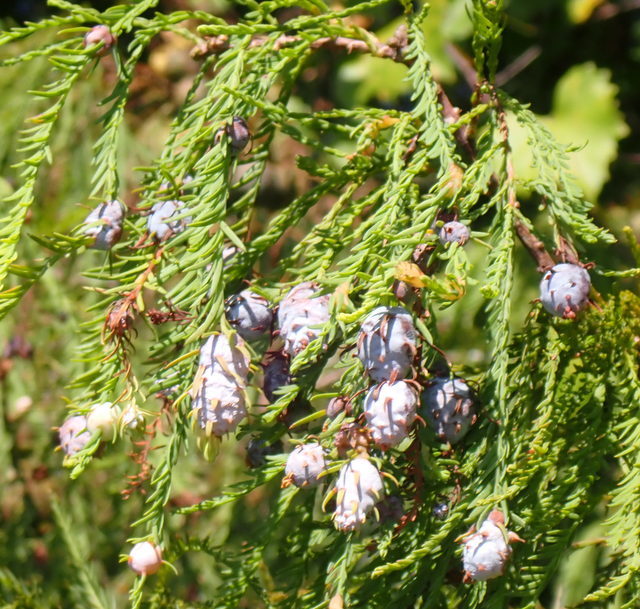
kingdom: Animalia
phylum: Arthropoda
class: Insecta
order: Diptera
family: Cecidomyiidae
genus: Taxodiomyia
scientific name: Taxodiomyia cupressiananassa
